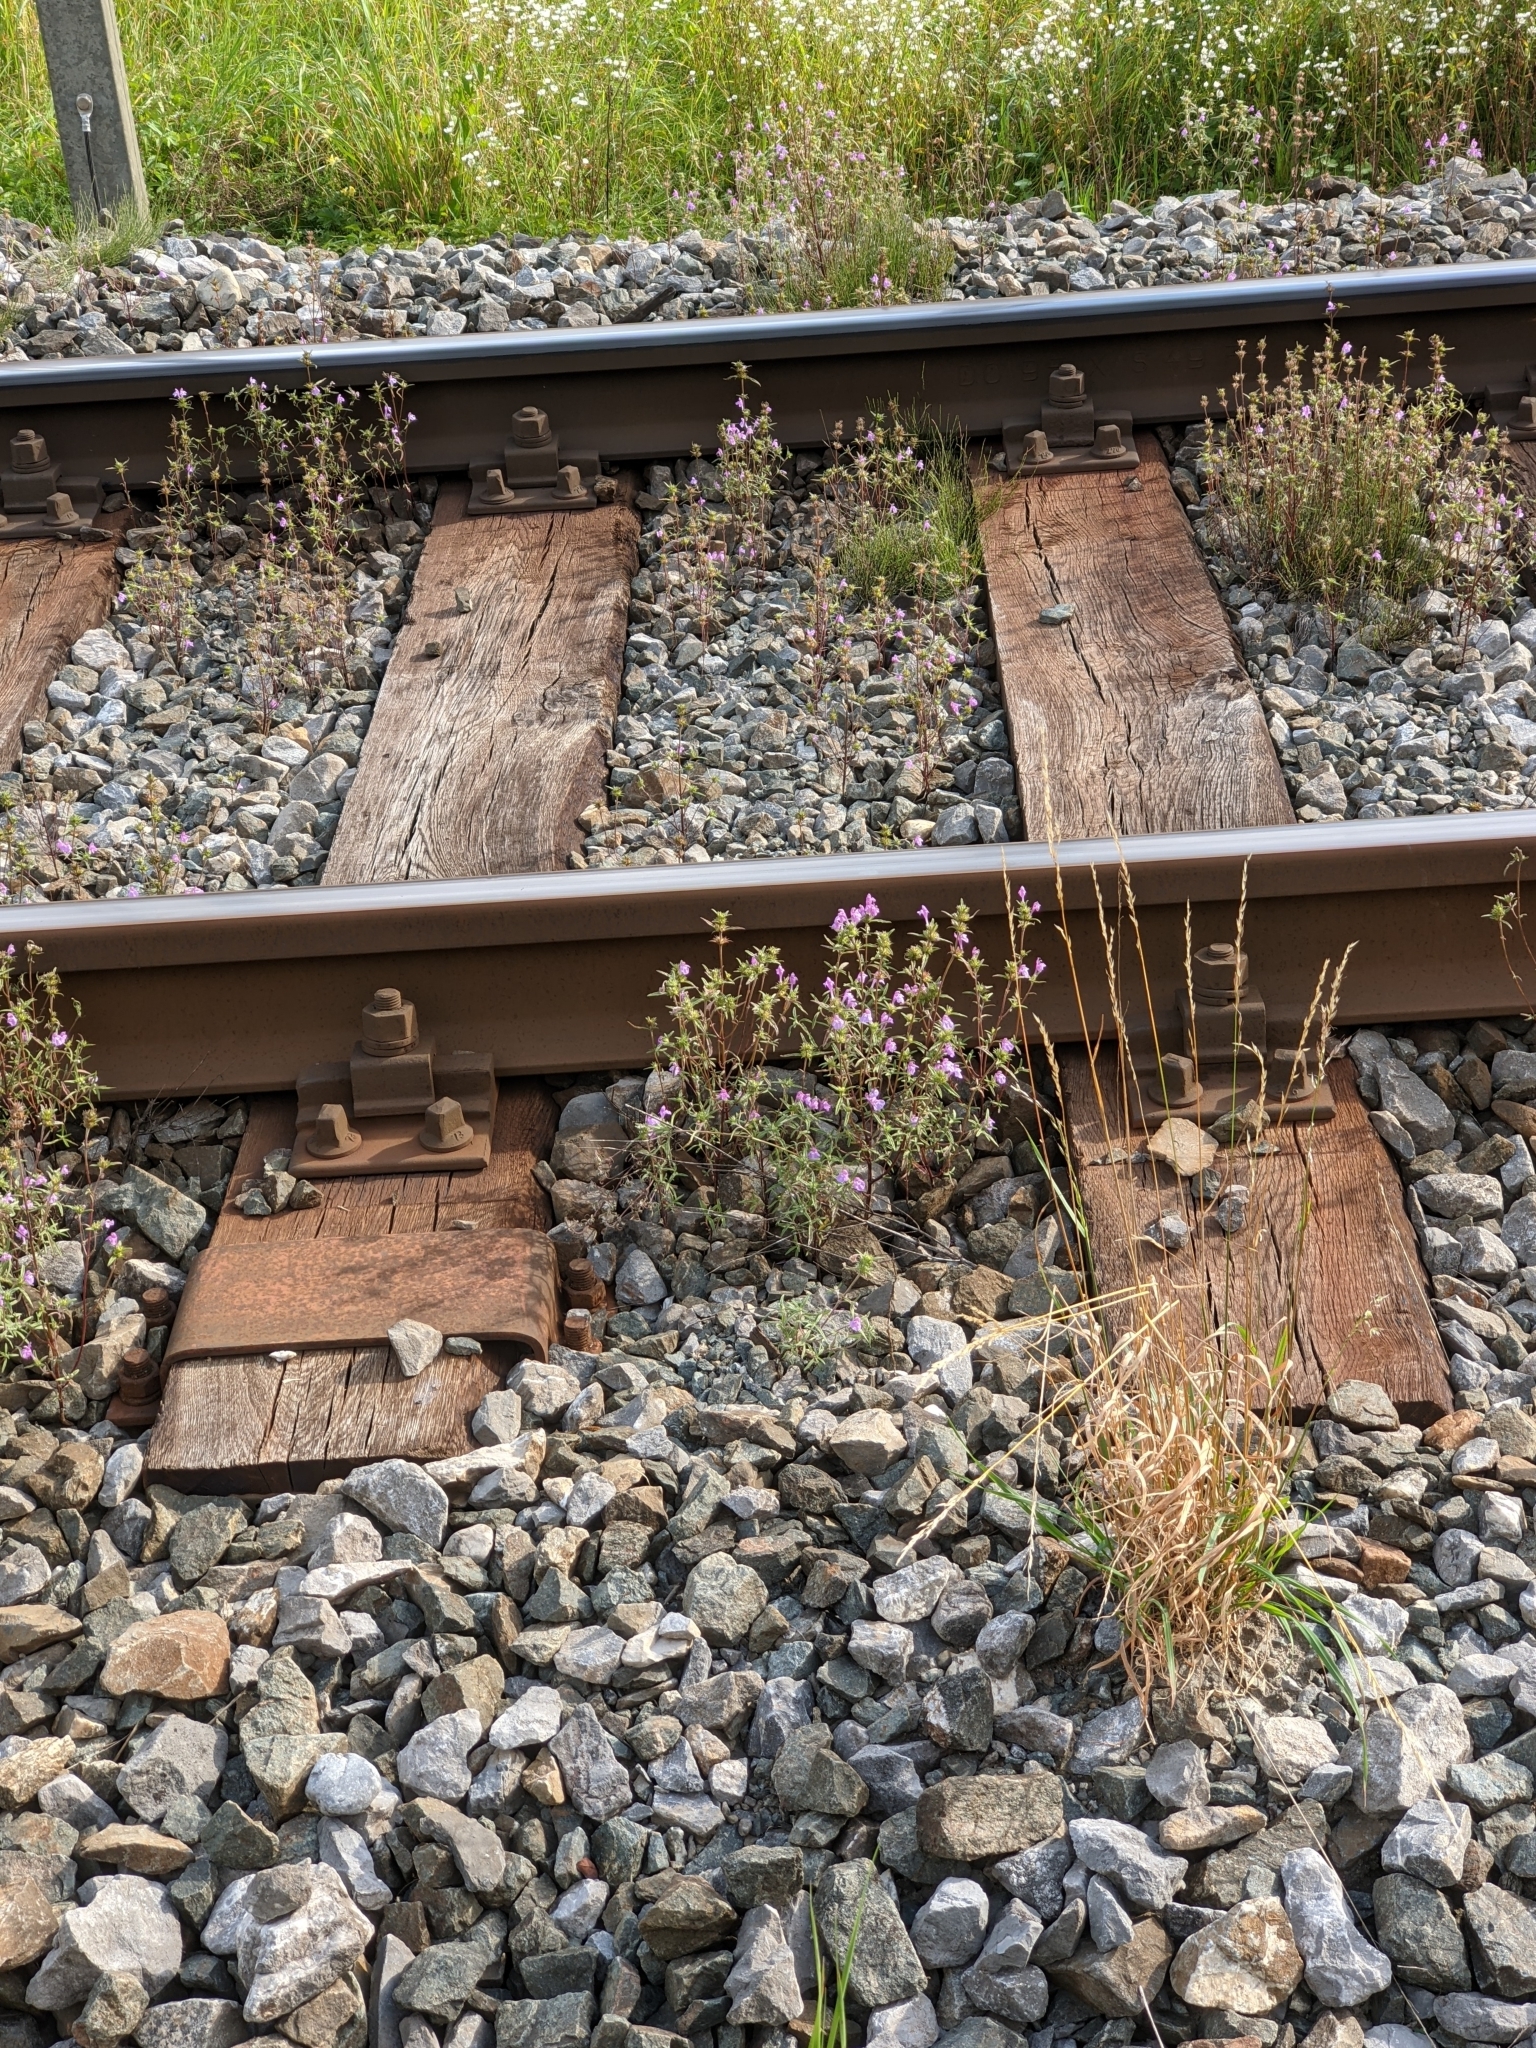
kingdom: Plantae
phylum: Tracheophyta
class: Magnoliopsida
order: Lamiales
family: Lamiaceae
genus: Galeopsis
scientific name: Galeopsis angustifolia
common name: Red hemp-nettle
